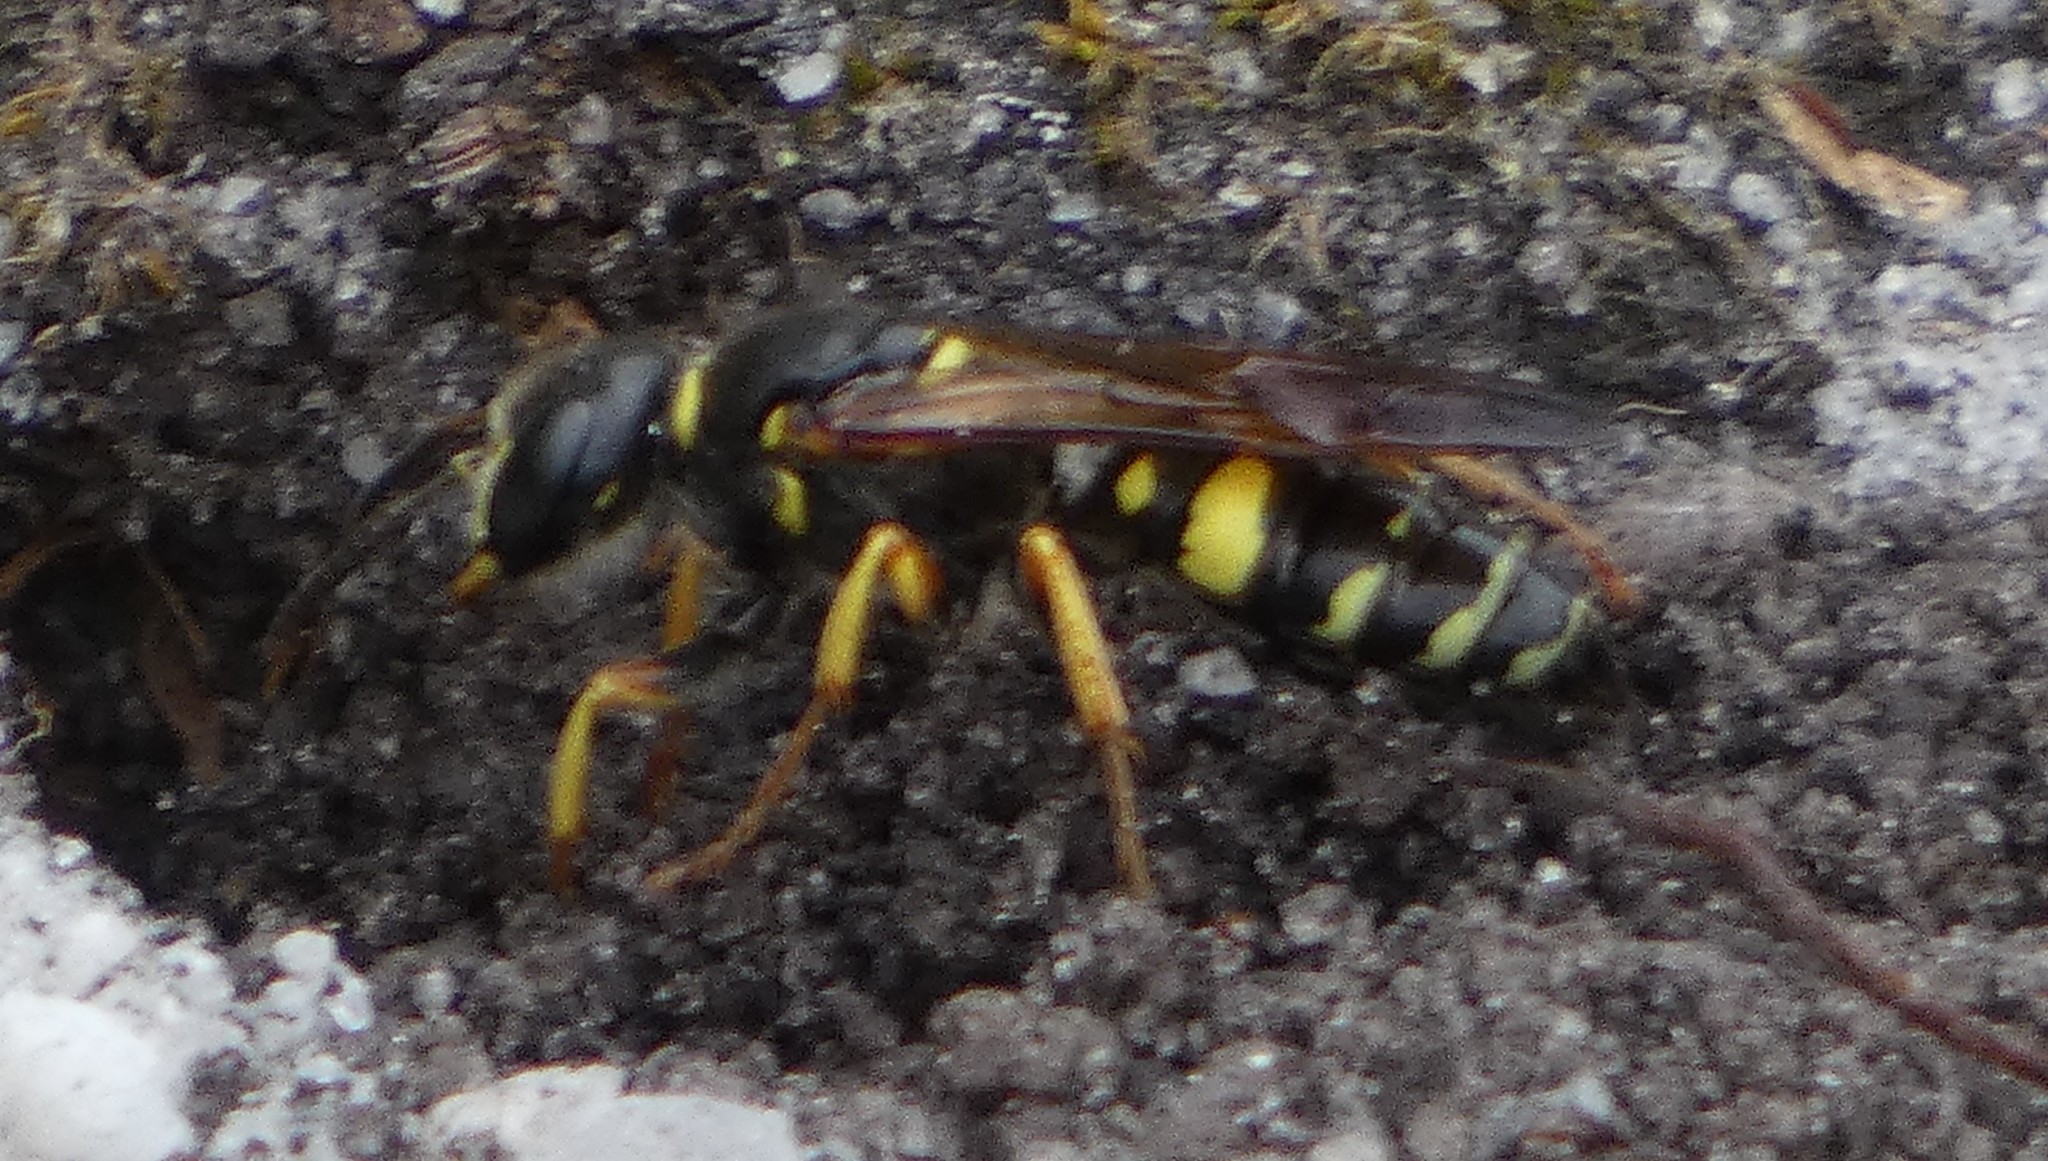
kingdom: Animalia
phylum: Arthropoda
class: Insecta
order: Hymenoptera
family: Crabronidae
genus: Philanthus
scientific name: Philanthus sanbornii
